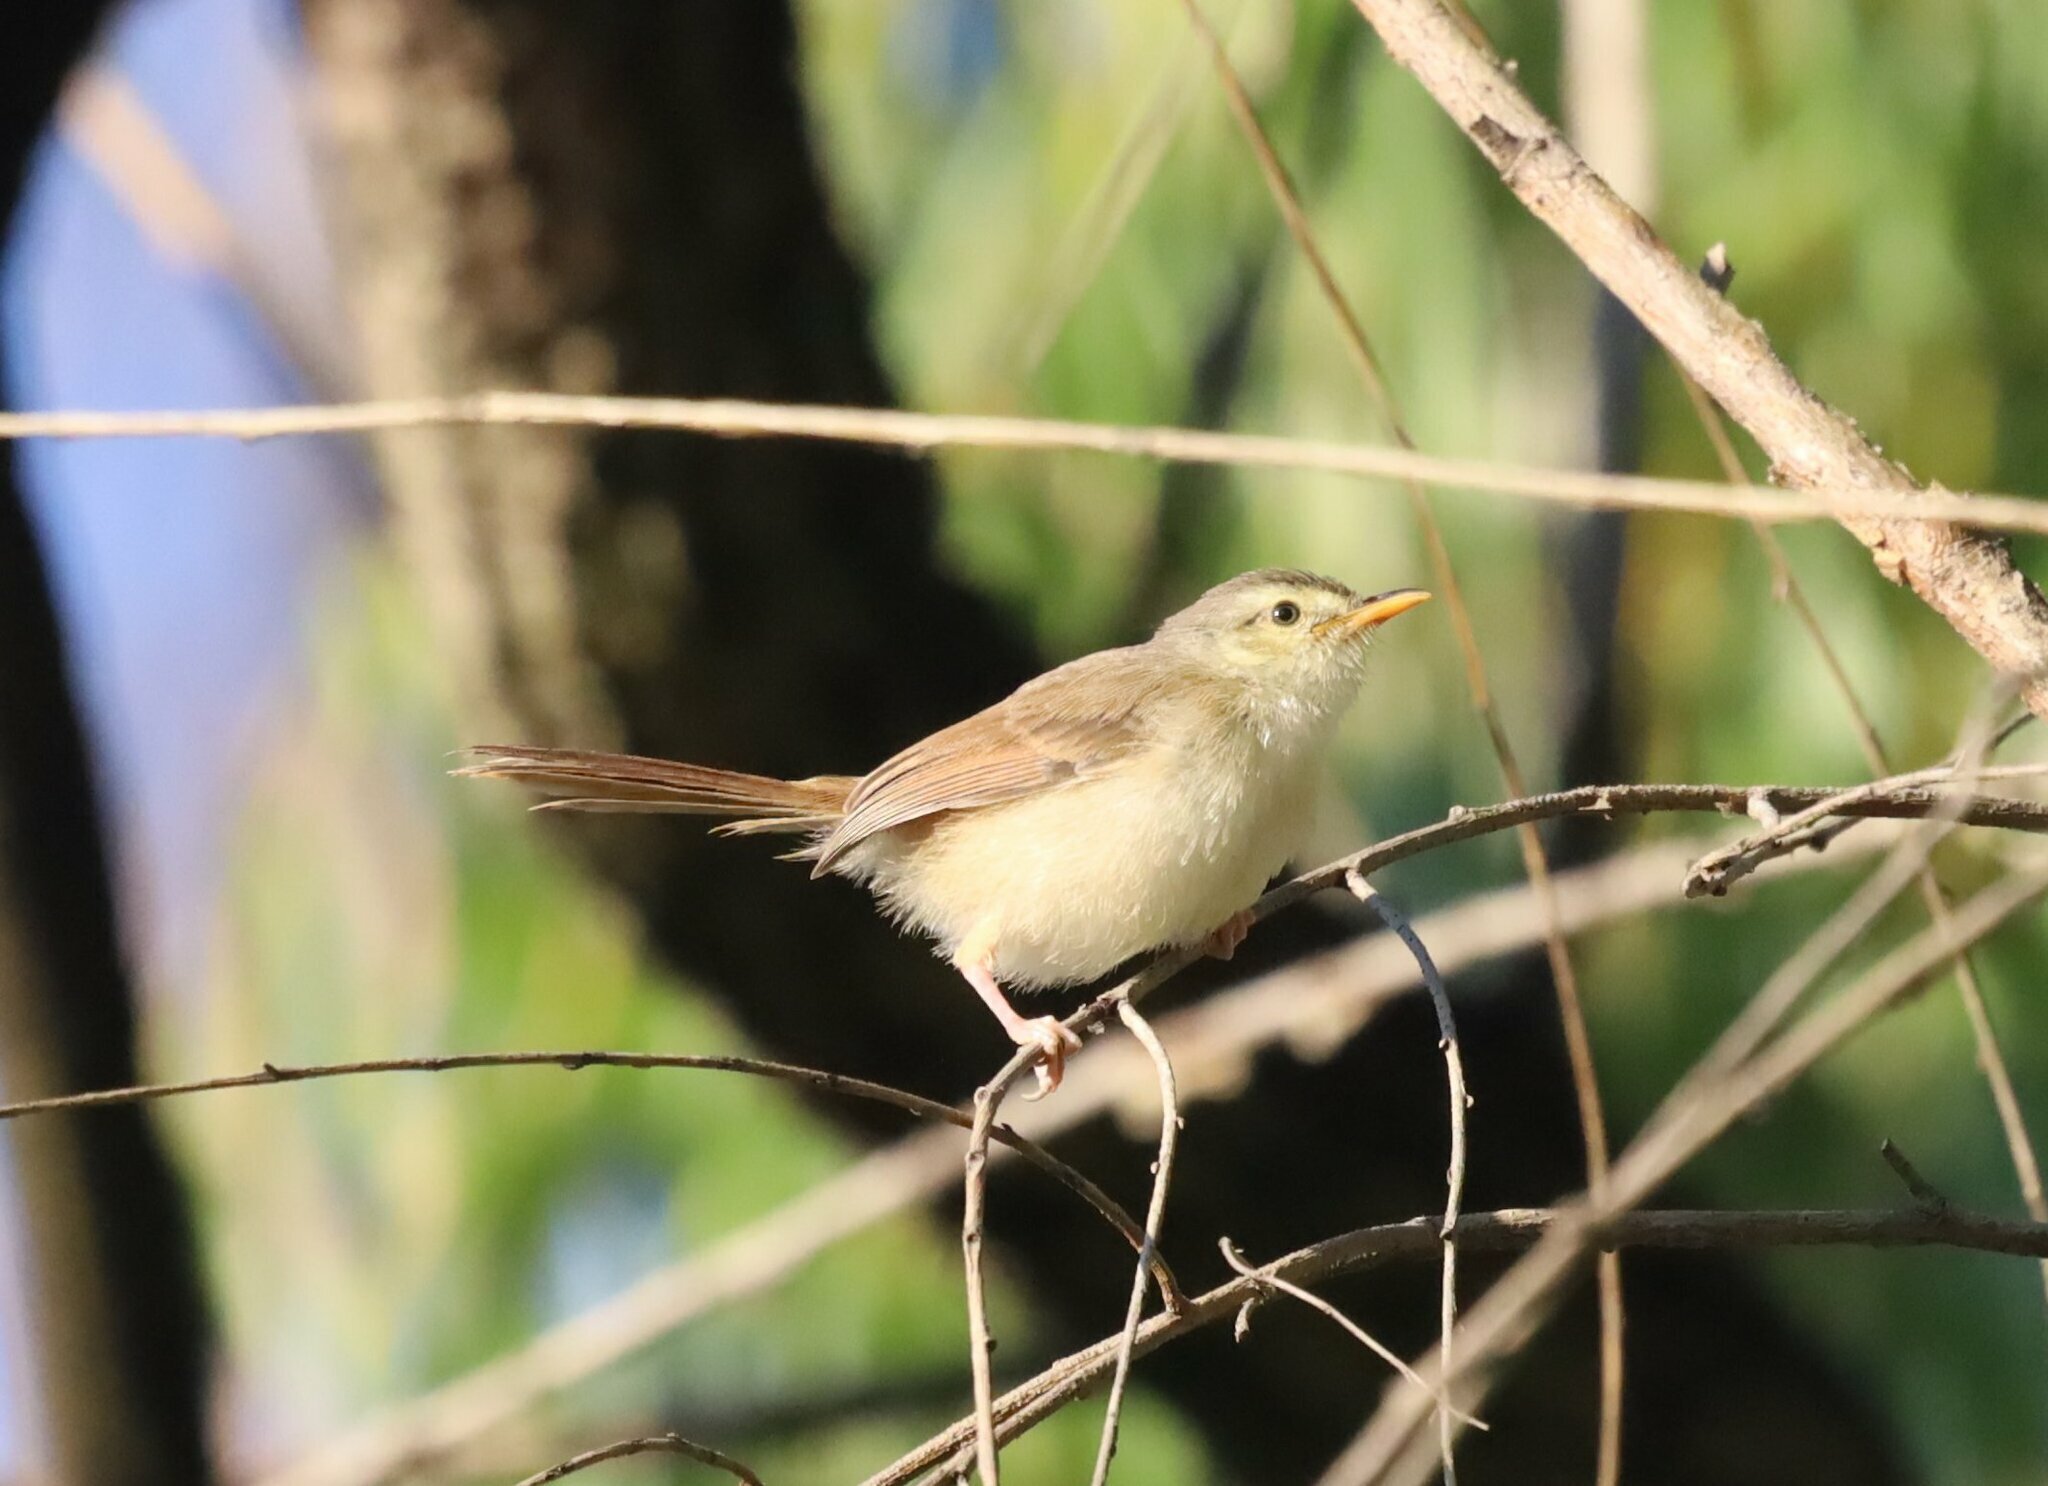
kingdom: Animalia
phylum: Chordata
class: Aves
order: Passeriformes
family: Cisticolidae
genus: Prinia
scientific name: Prinia subflava
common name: Tawny-flanked prinia
